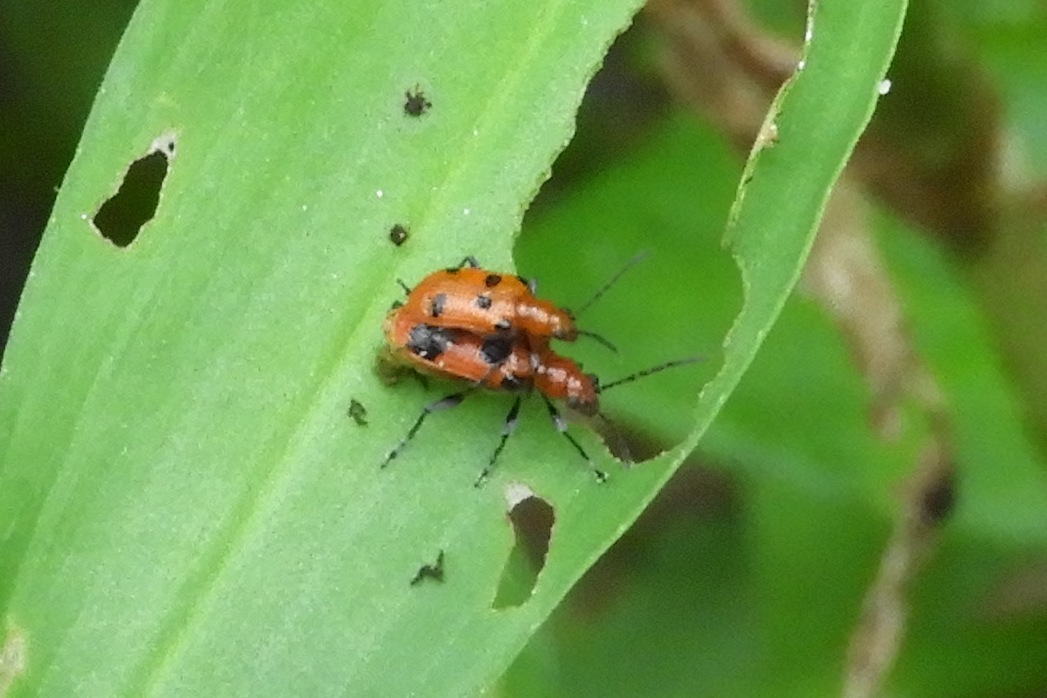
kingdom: Animalia
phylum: Arthropoda
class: Insecta
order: Coleoptera
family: Chrysomelidae
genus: Neolema
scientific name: Neolema sexpunctata
